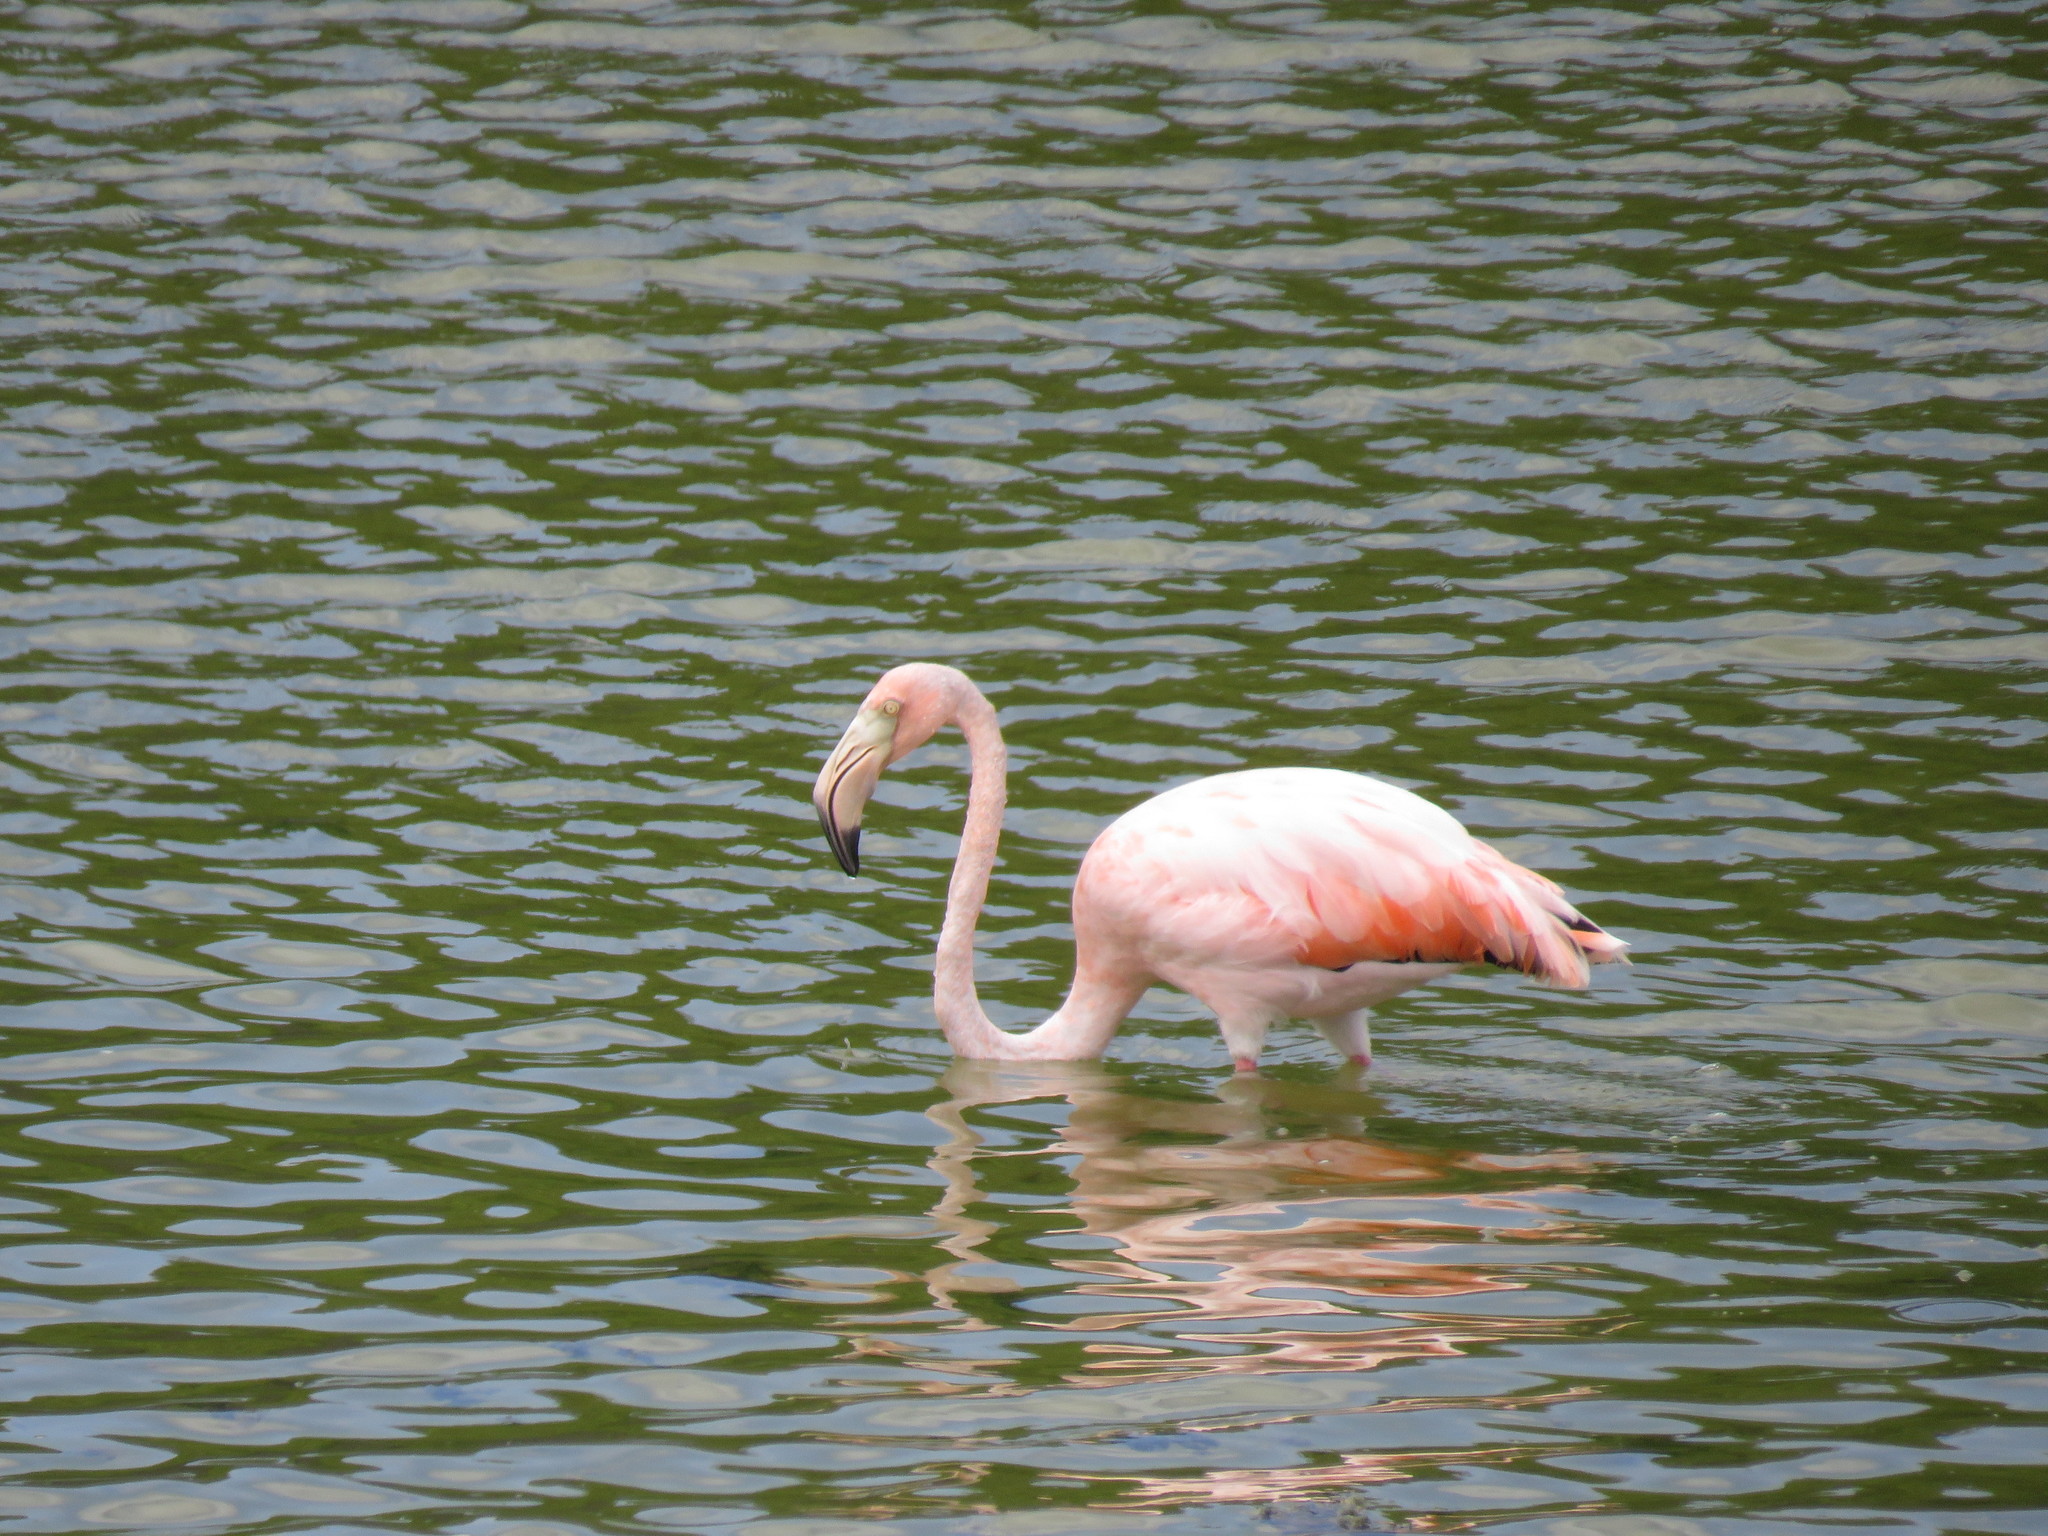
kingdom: Animalia
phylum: Chordata
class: Aves
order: Phoenicopteriformes
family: Phoenicopteridae
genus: Phoenicopterus
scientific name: Phoenicopterus ruber
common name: American flamingo
